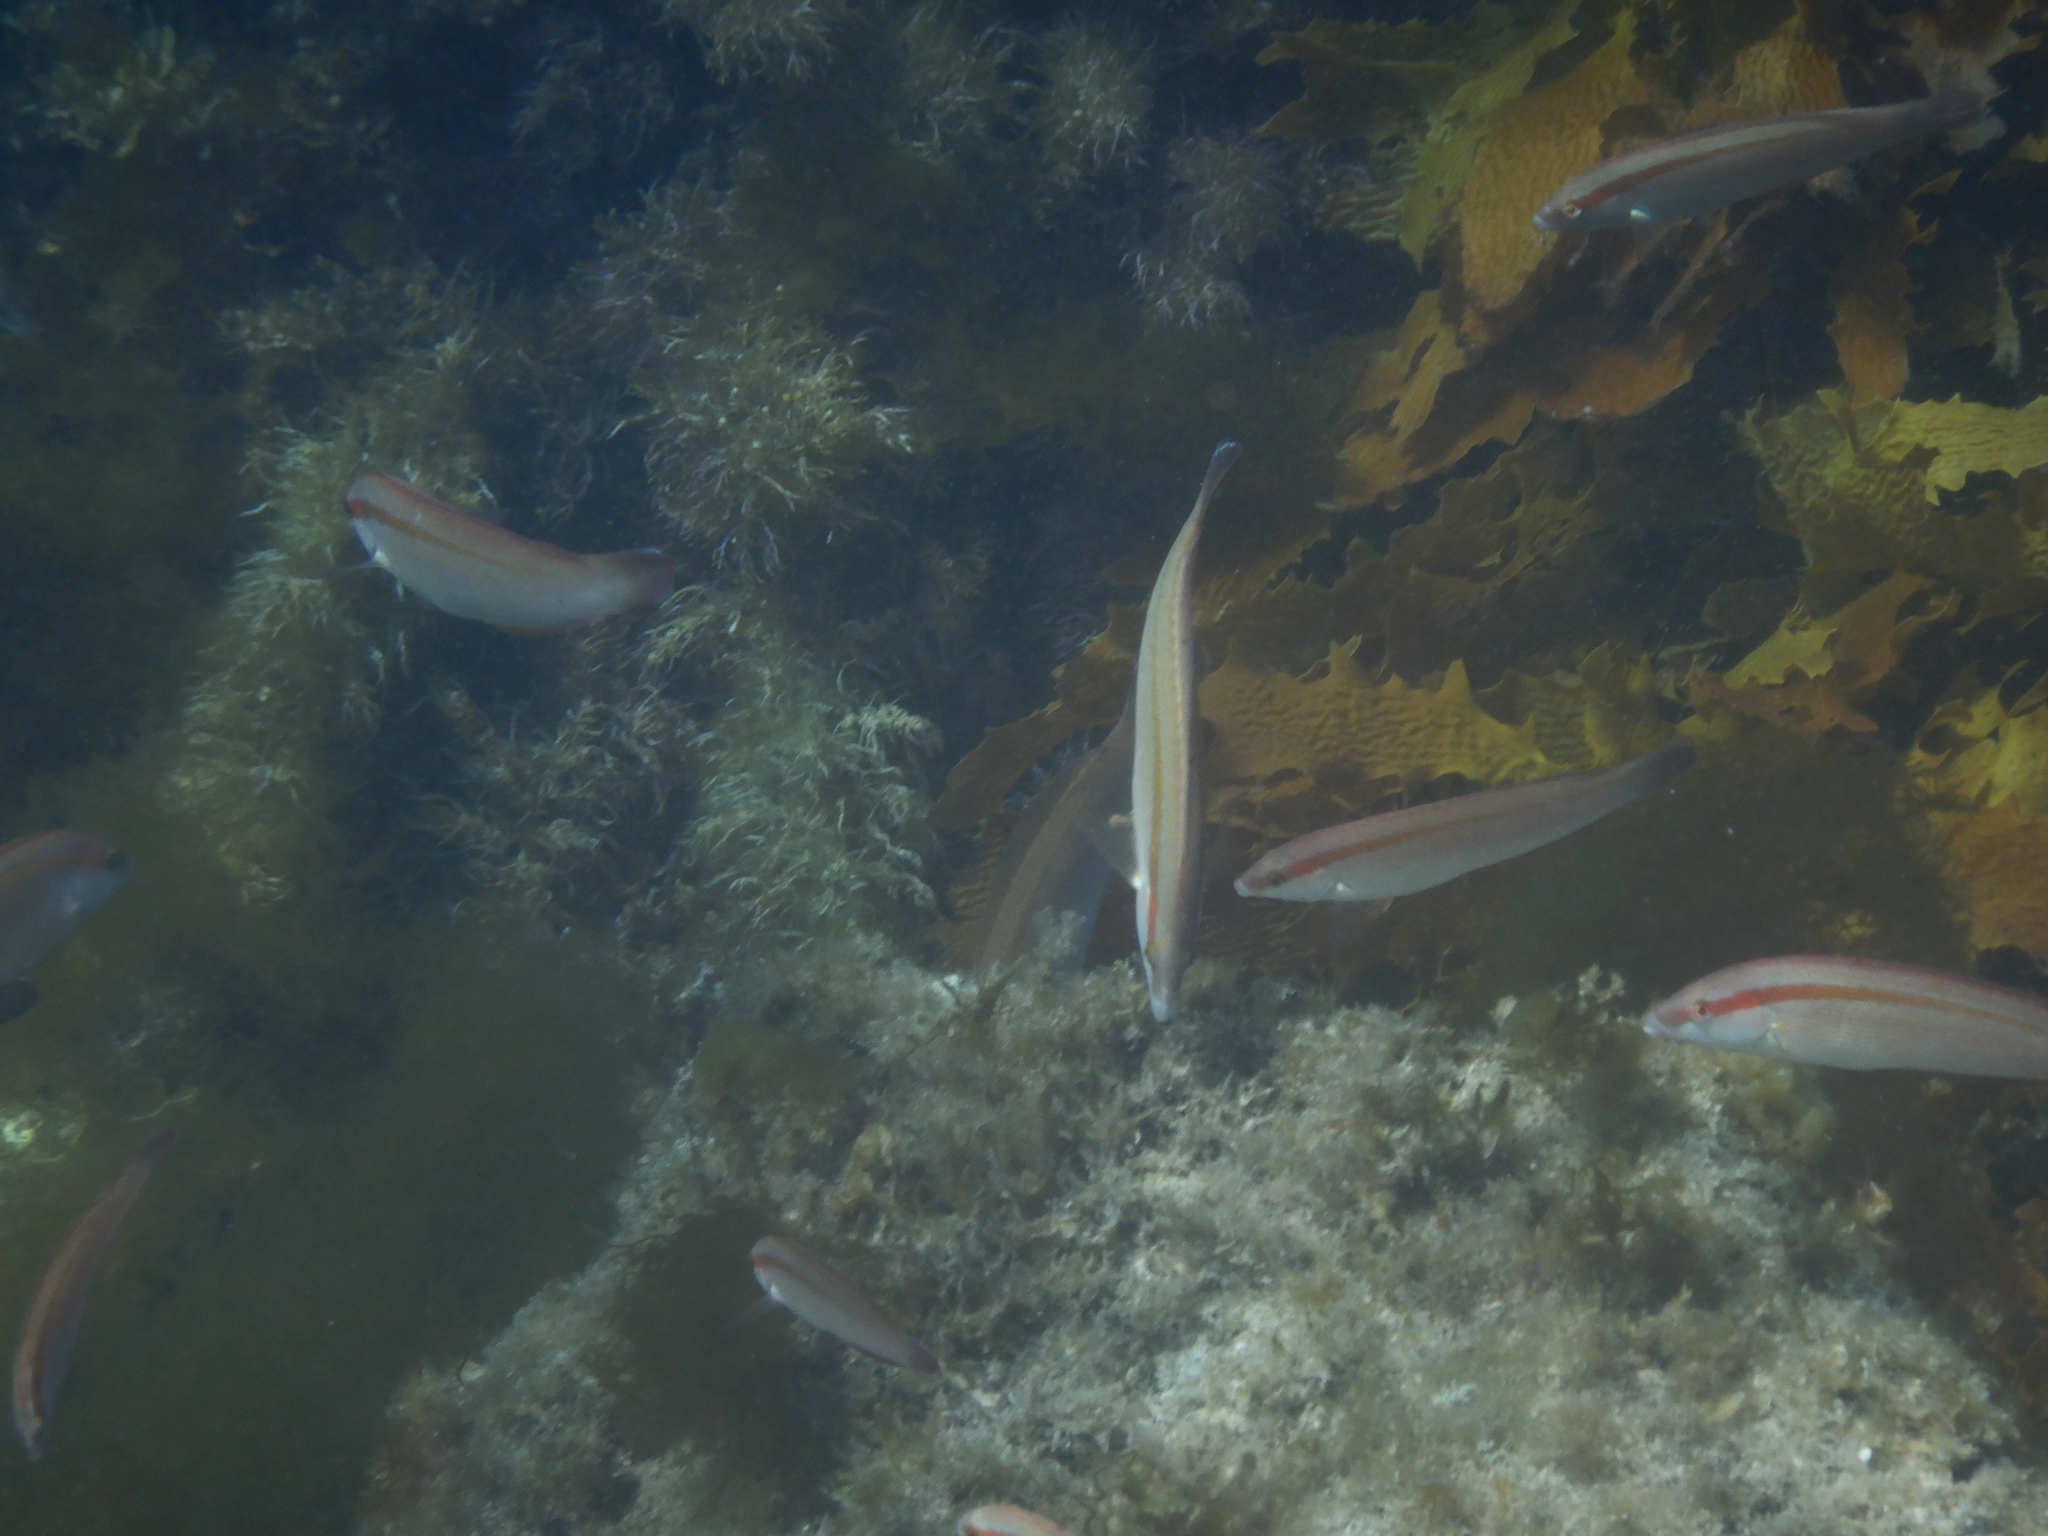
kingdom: Animalia
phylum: Chordata
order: Perciformes
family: Labridae
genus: Coris
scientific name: Coris auricularis
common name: Western king wrasse
